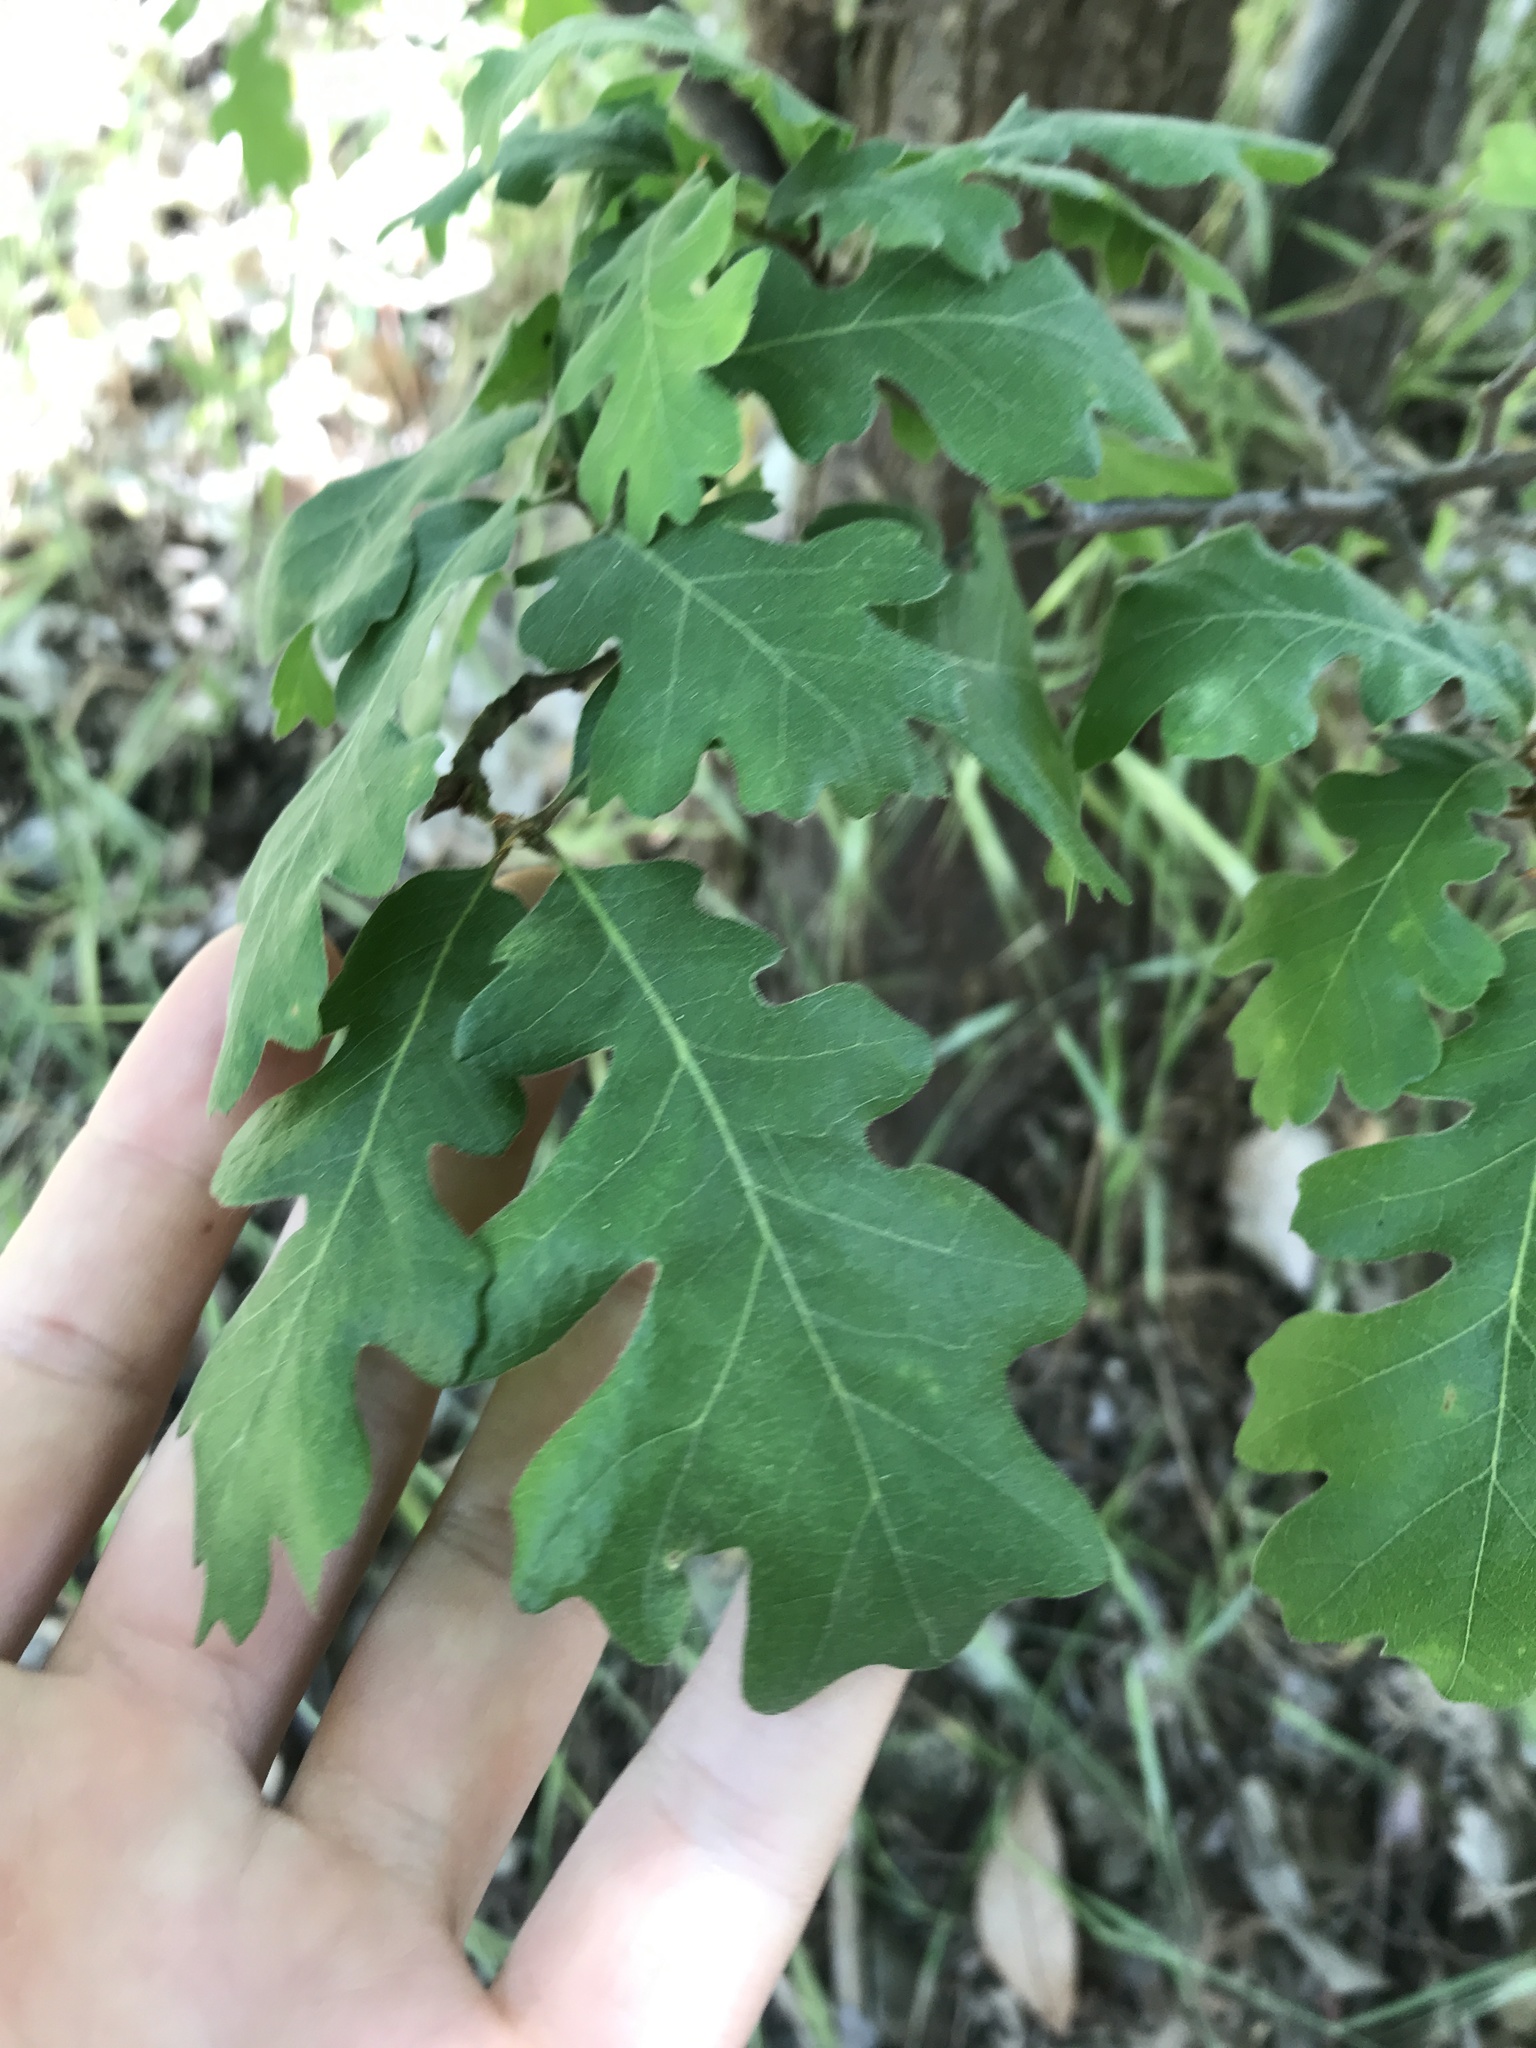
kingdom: Plantae
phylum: Tracheophyta
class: Magnoliopsida
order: Fagales
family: Fagaceae
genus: Quercus
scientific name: Quercus lobata
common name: Valley oak
